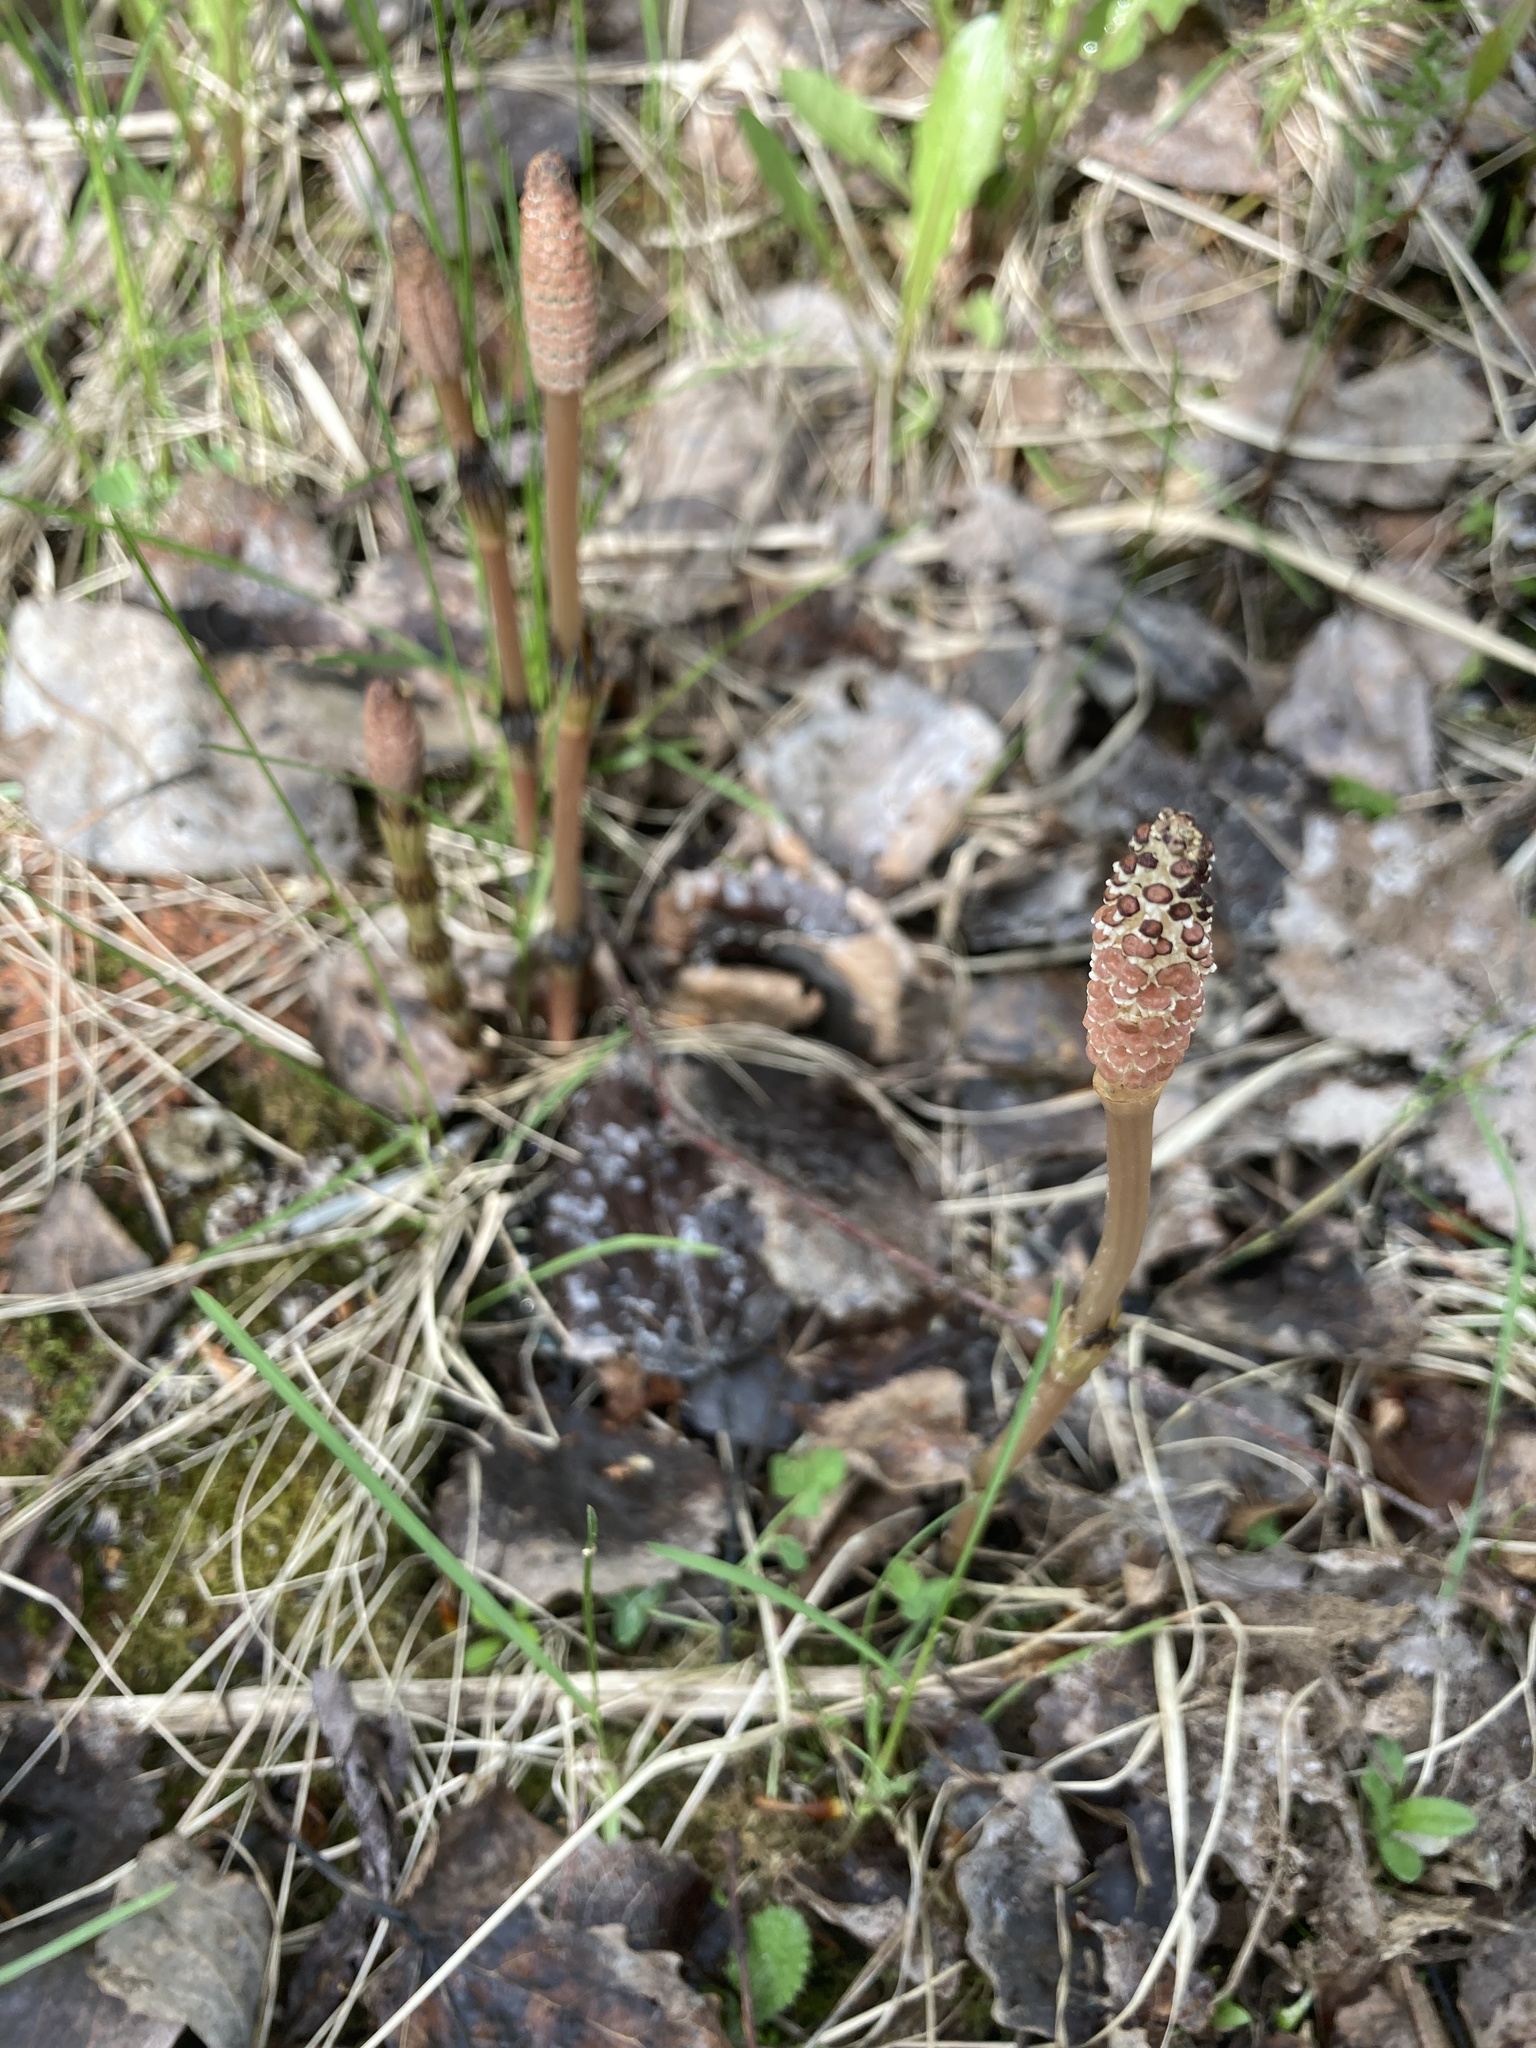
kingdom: Plantae
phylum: Tracheophyta
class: Polypodiopsida
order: Equisetales
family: Equisetaceae
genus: Equisetum
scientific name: Equisetum arvense
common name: Field horsetail
